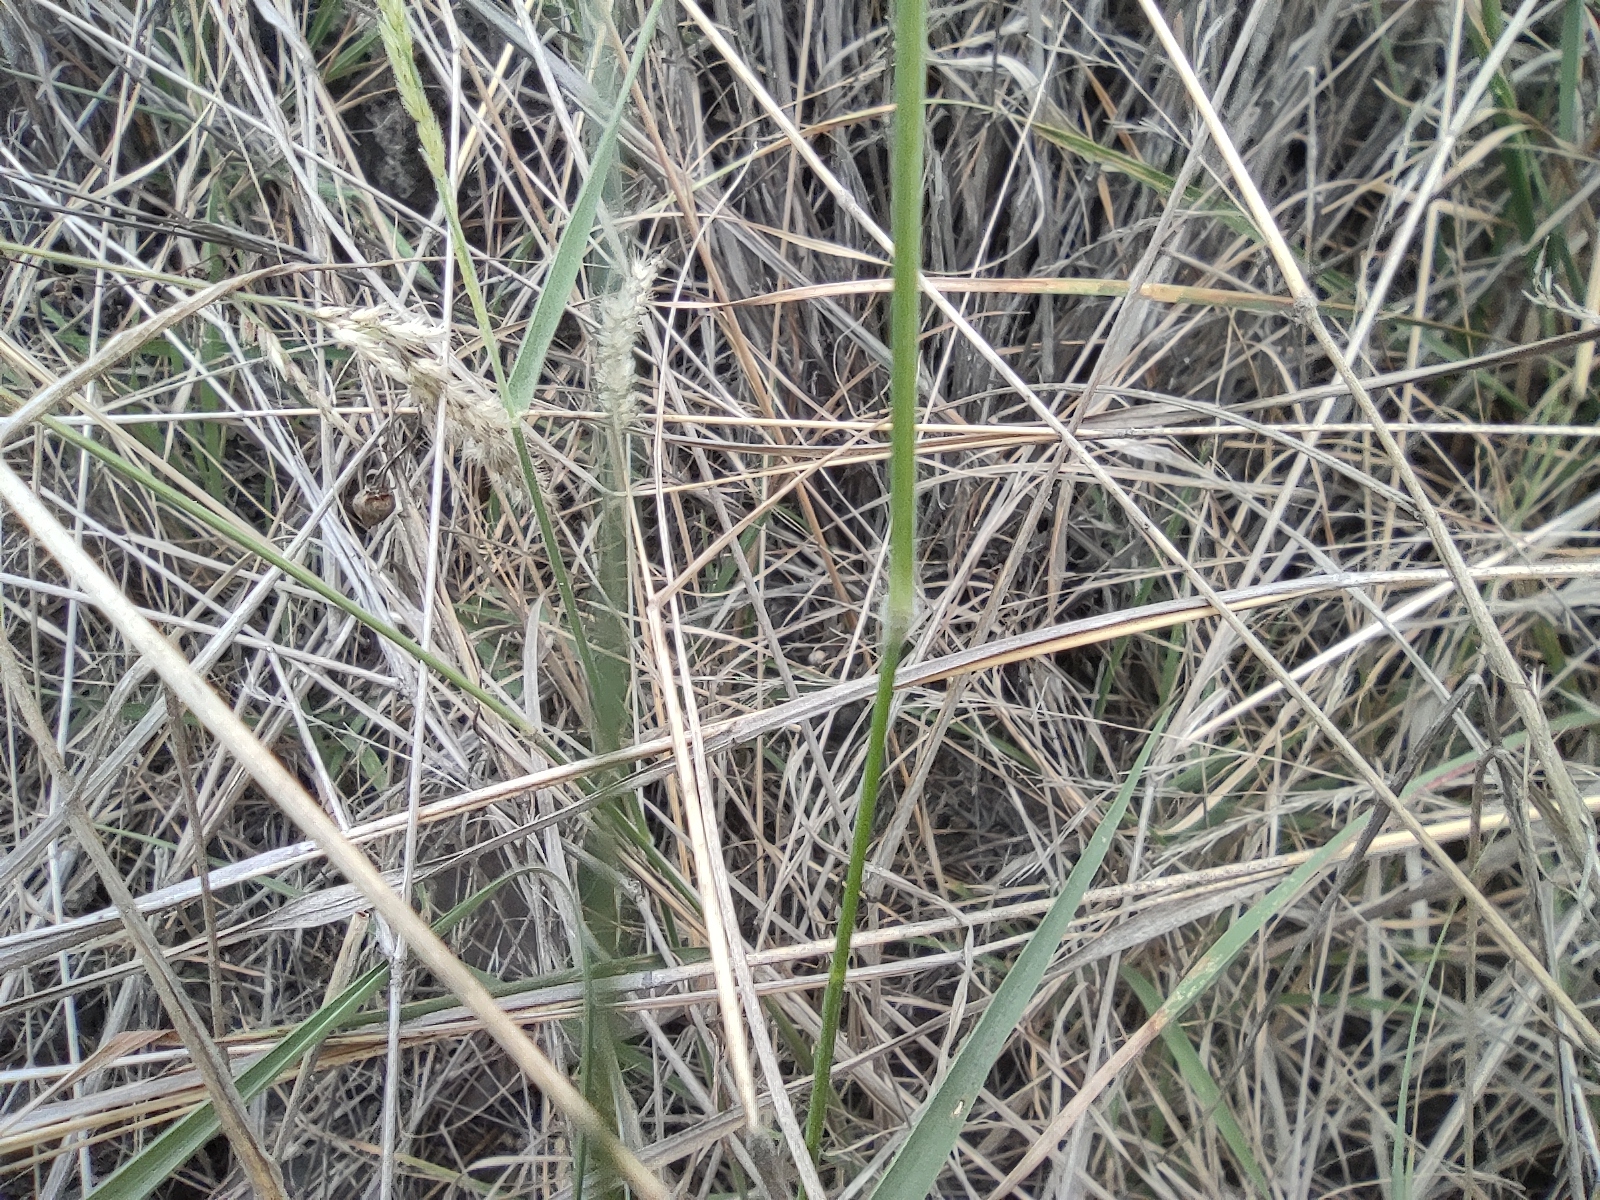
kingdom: Plantae
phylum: Tracheophyta
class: Liliopsida
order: Poales
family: Poaceae
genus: Enneapogon
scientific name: Enneapogon cenchroides
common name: Soft feather pappusgrass
